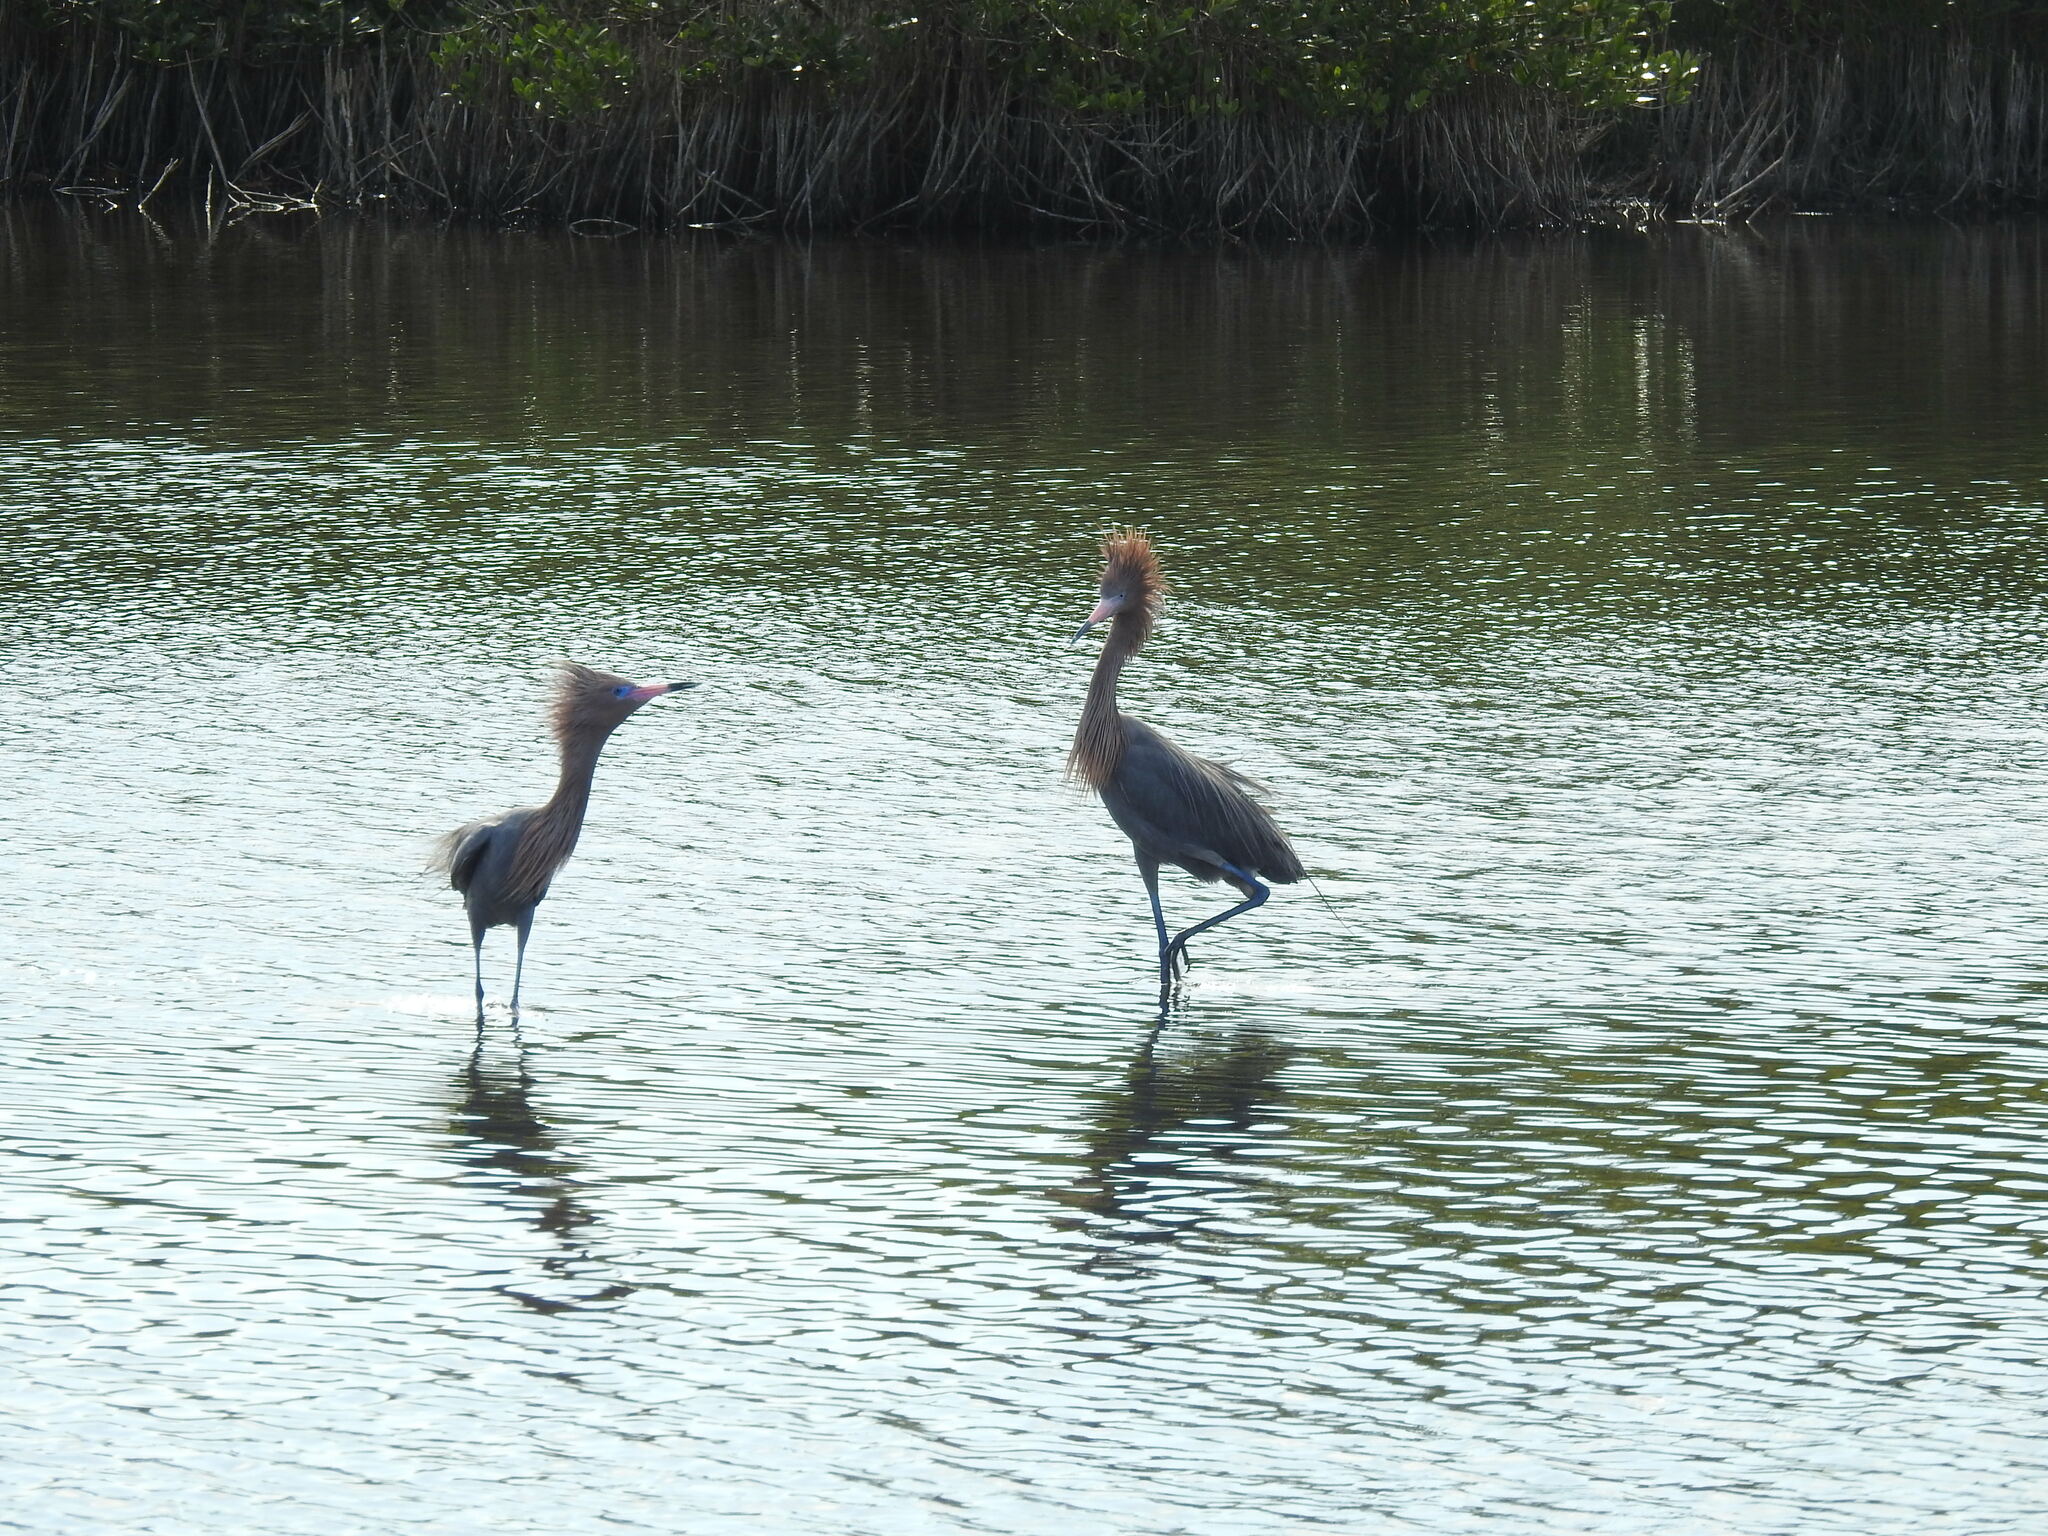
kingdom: Animalia
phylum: Chordata
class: Aves
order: Pelecaniformes
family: Ardeidae
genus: Egretta
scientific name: Egretta rufescens
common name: Reddish egret
